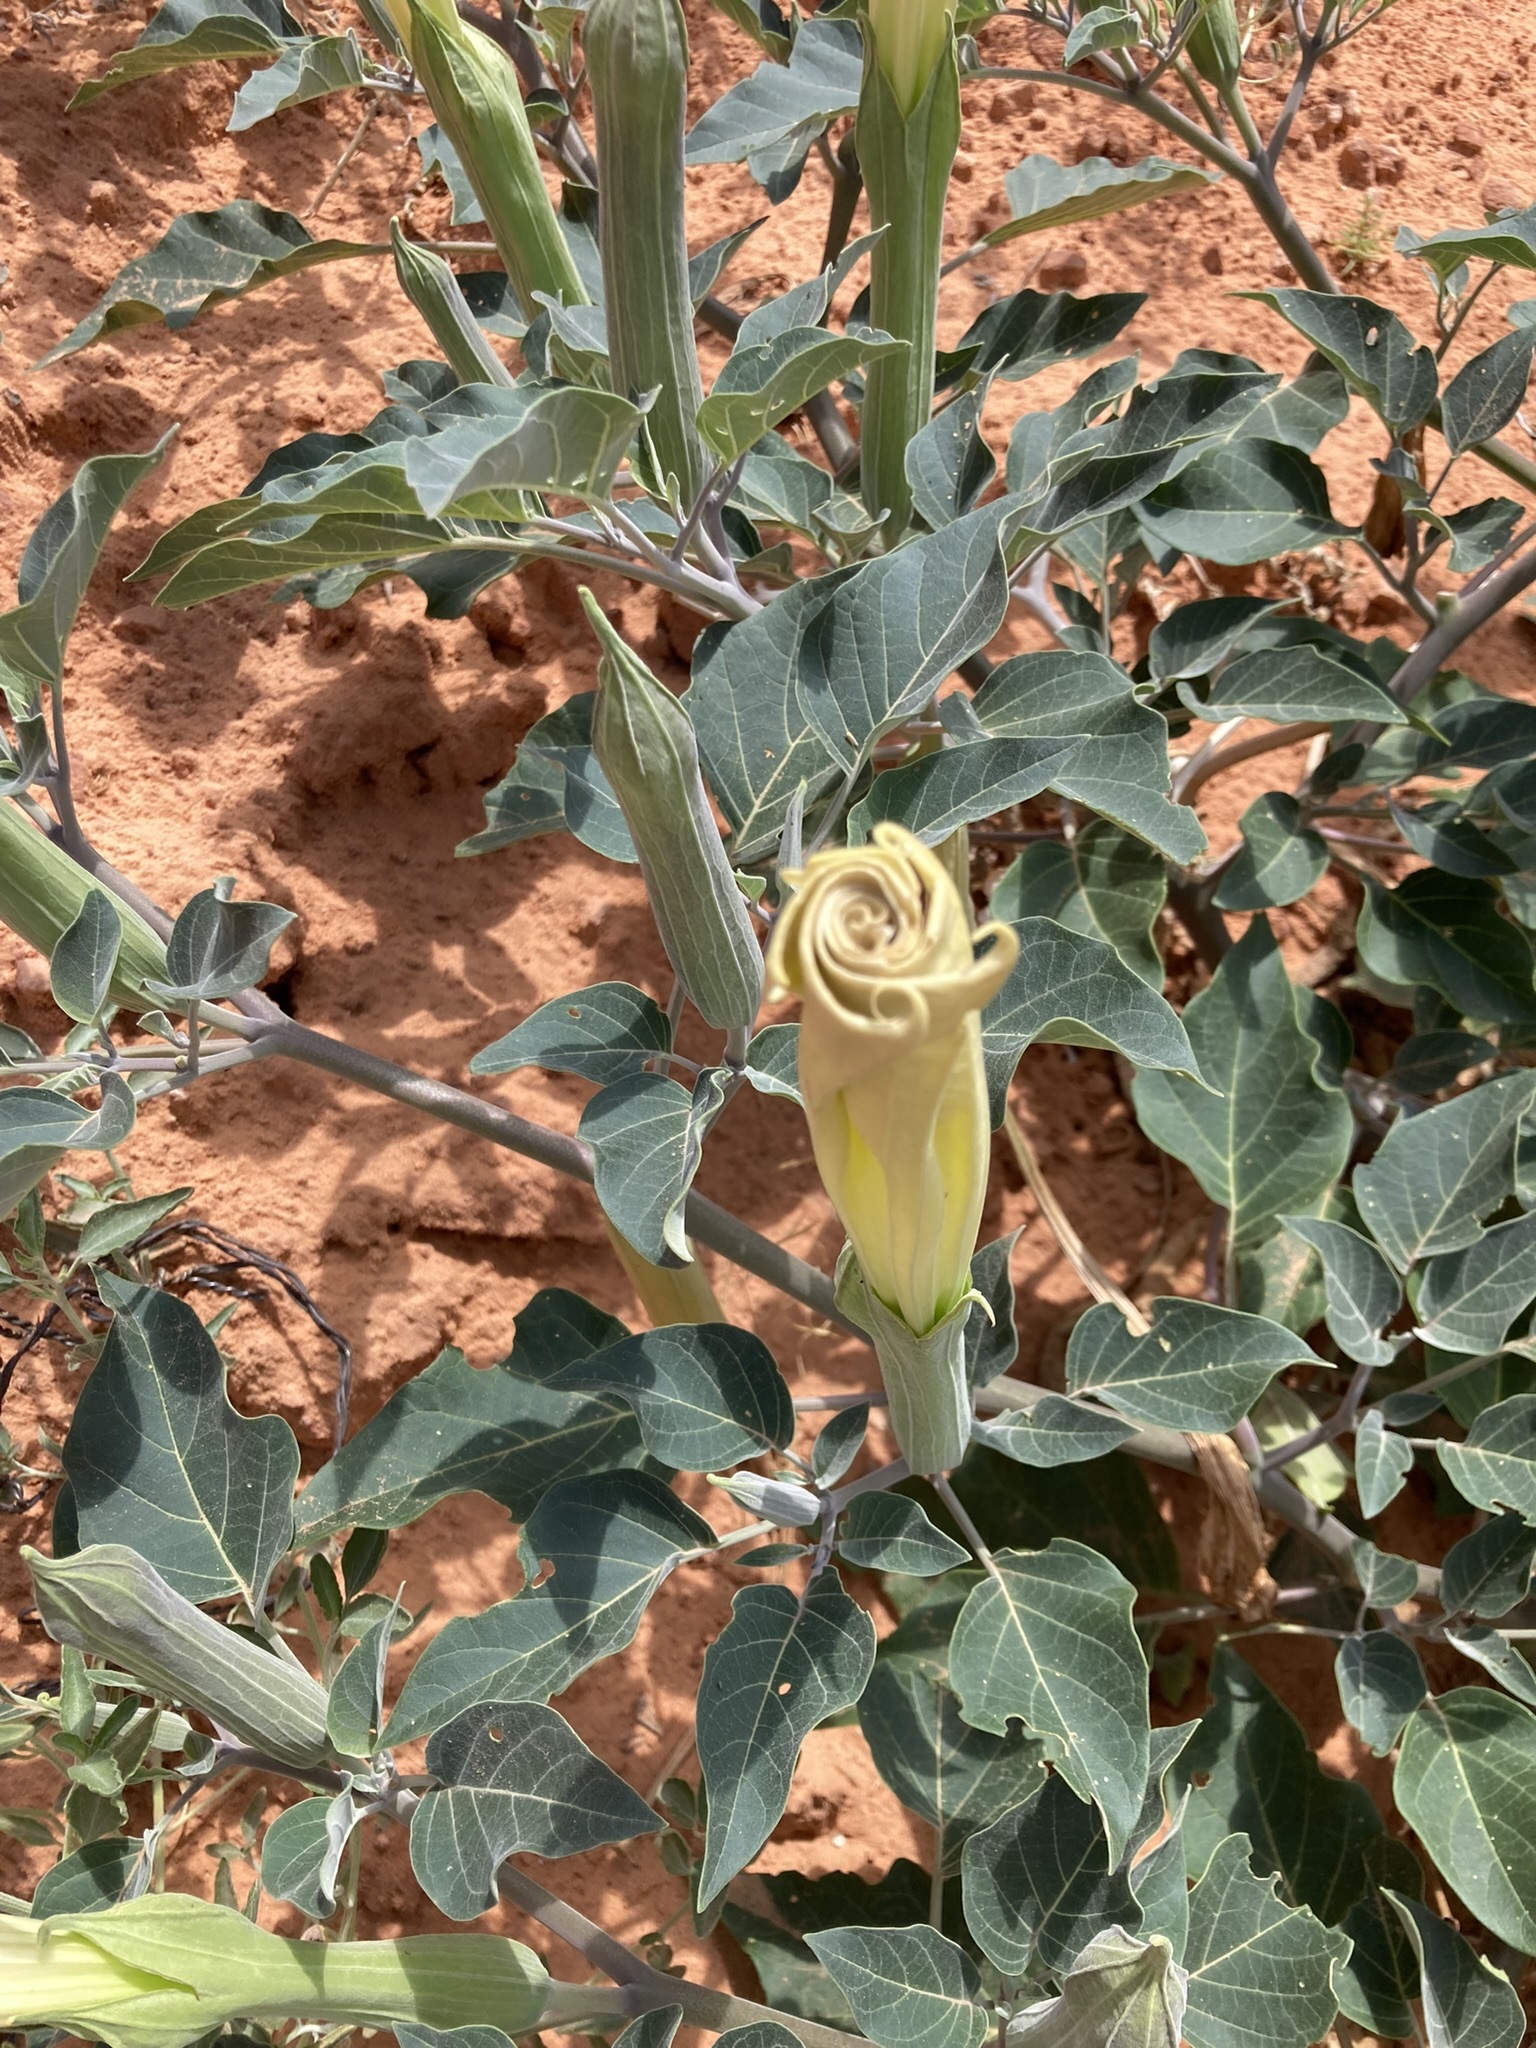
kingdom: Plantae
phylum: Tracheophyta
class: Magnoliopsida
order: Solanales
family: Solanaceae
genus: Datura
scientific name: Datura wrightii
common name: Sacred thorn-apple
